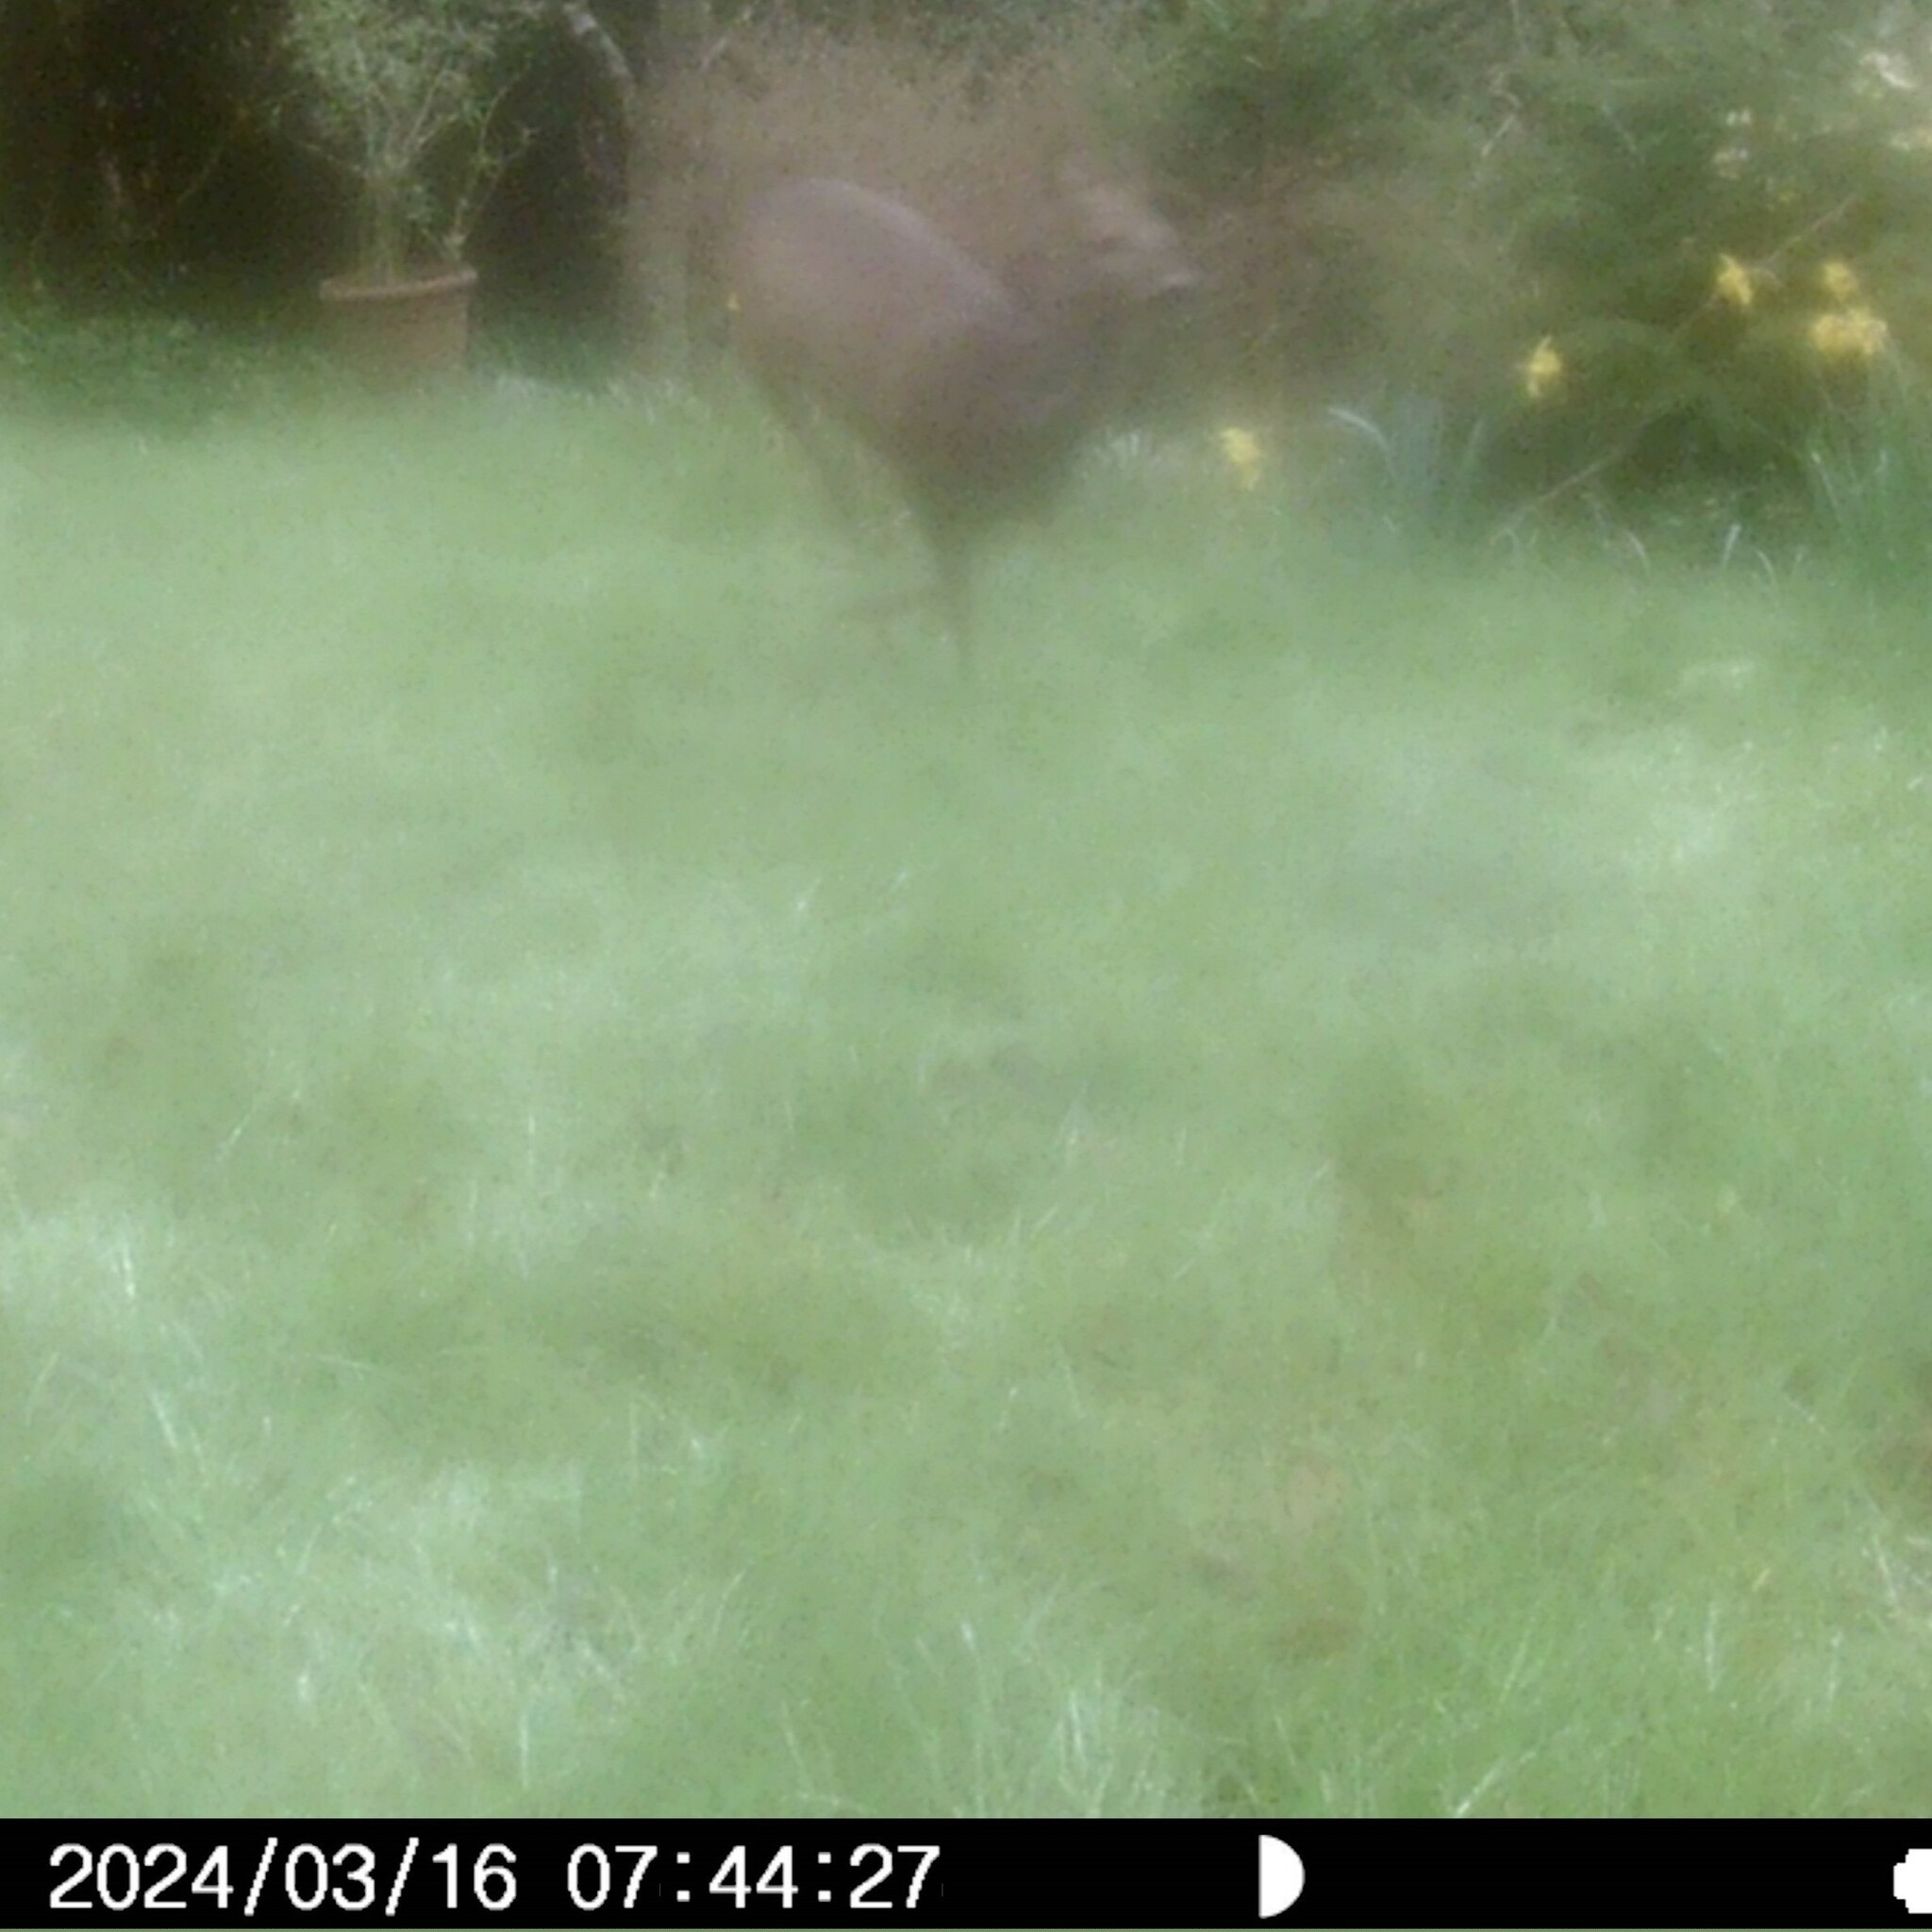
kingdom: Animalia
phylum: Chordata
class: Mammalia
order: Artiodactyla
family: Cervidae
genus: Capreolus
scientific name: Capreolus capreolus
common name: Western roe deer
